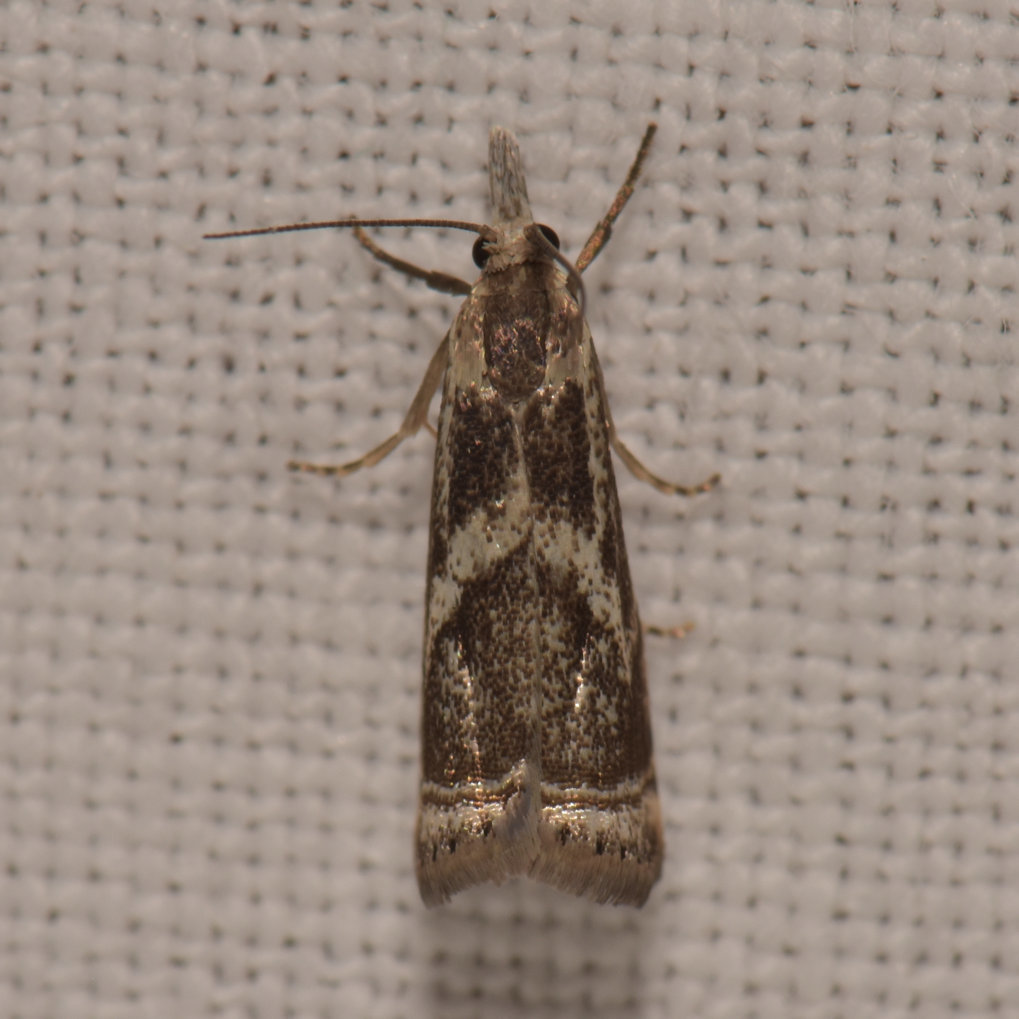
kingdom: Animalia
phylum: Arthropoda
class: Insecta
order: Lepidoptera
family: Crambidae
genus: Microcrambus
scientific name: Microcrambus elegans
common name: Elegant grass-veneer
